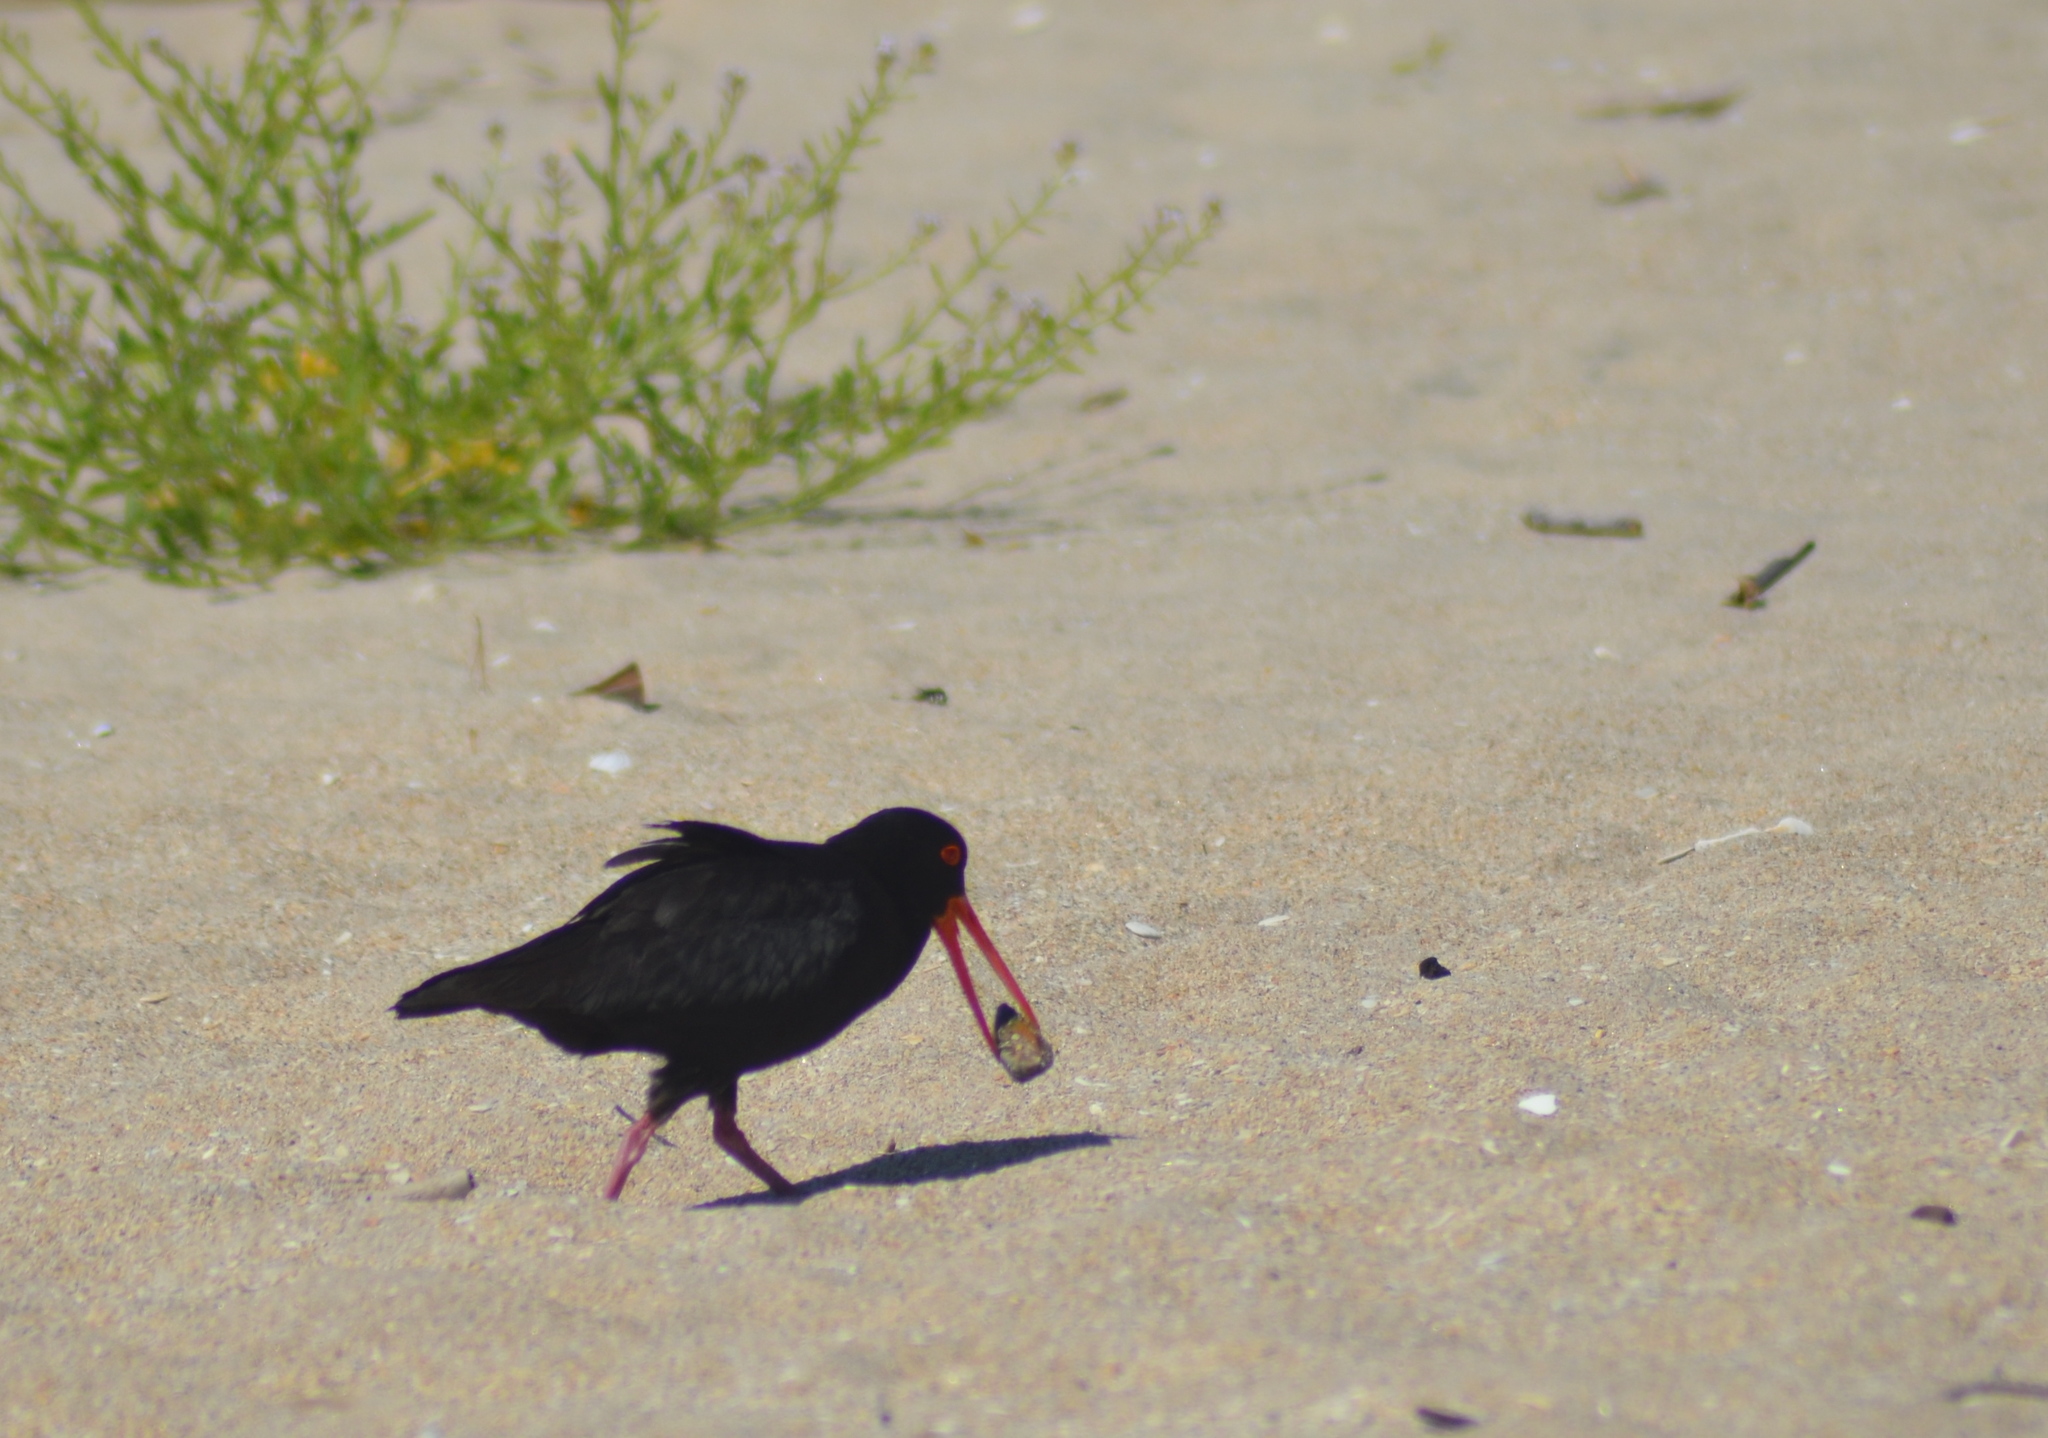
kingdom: Animalia
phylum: Chordata
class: Aves
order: Charadriiformes
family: Haematopodidae
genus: Haematopus
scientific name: Haematopus unicolor
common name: Variable oystercatcher
